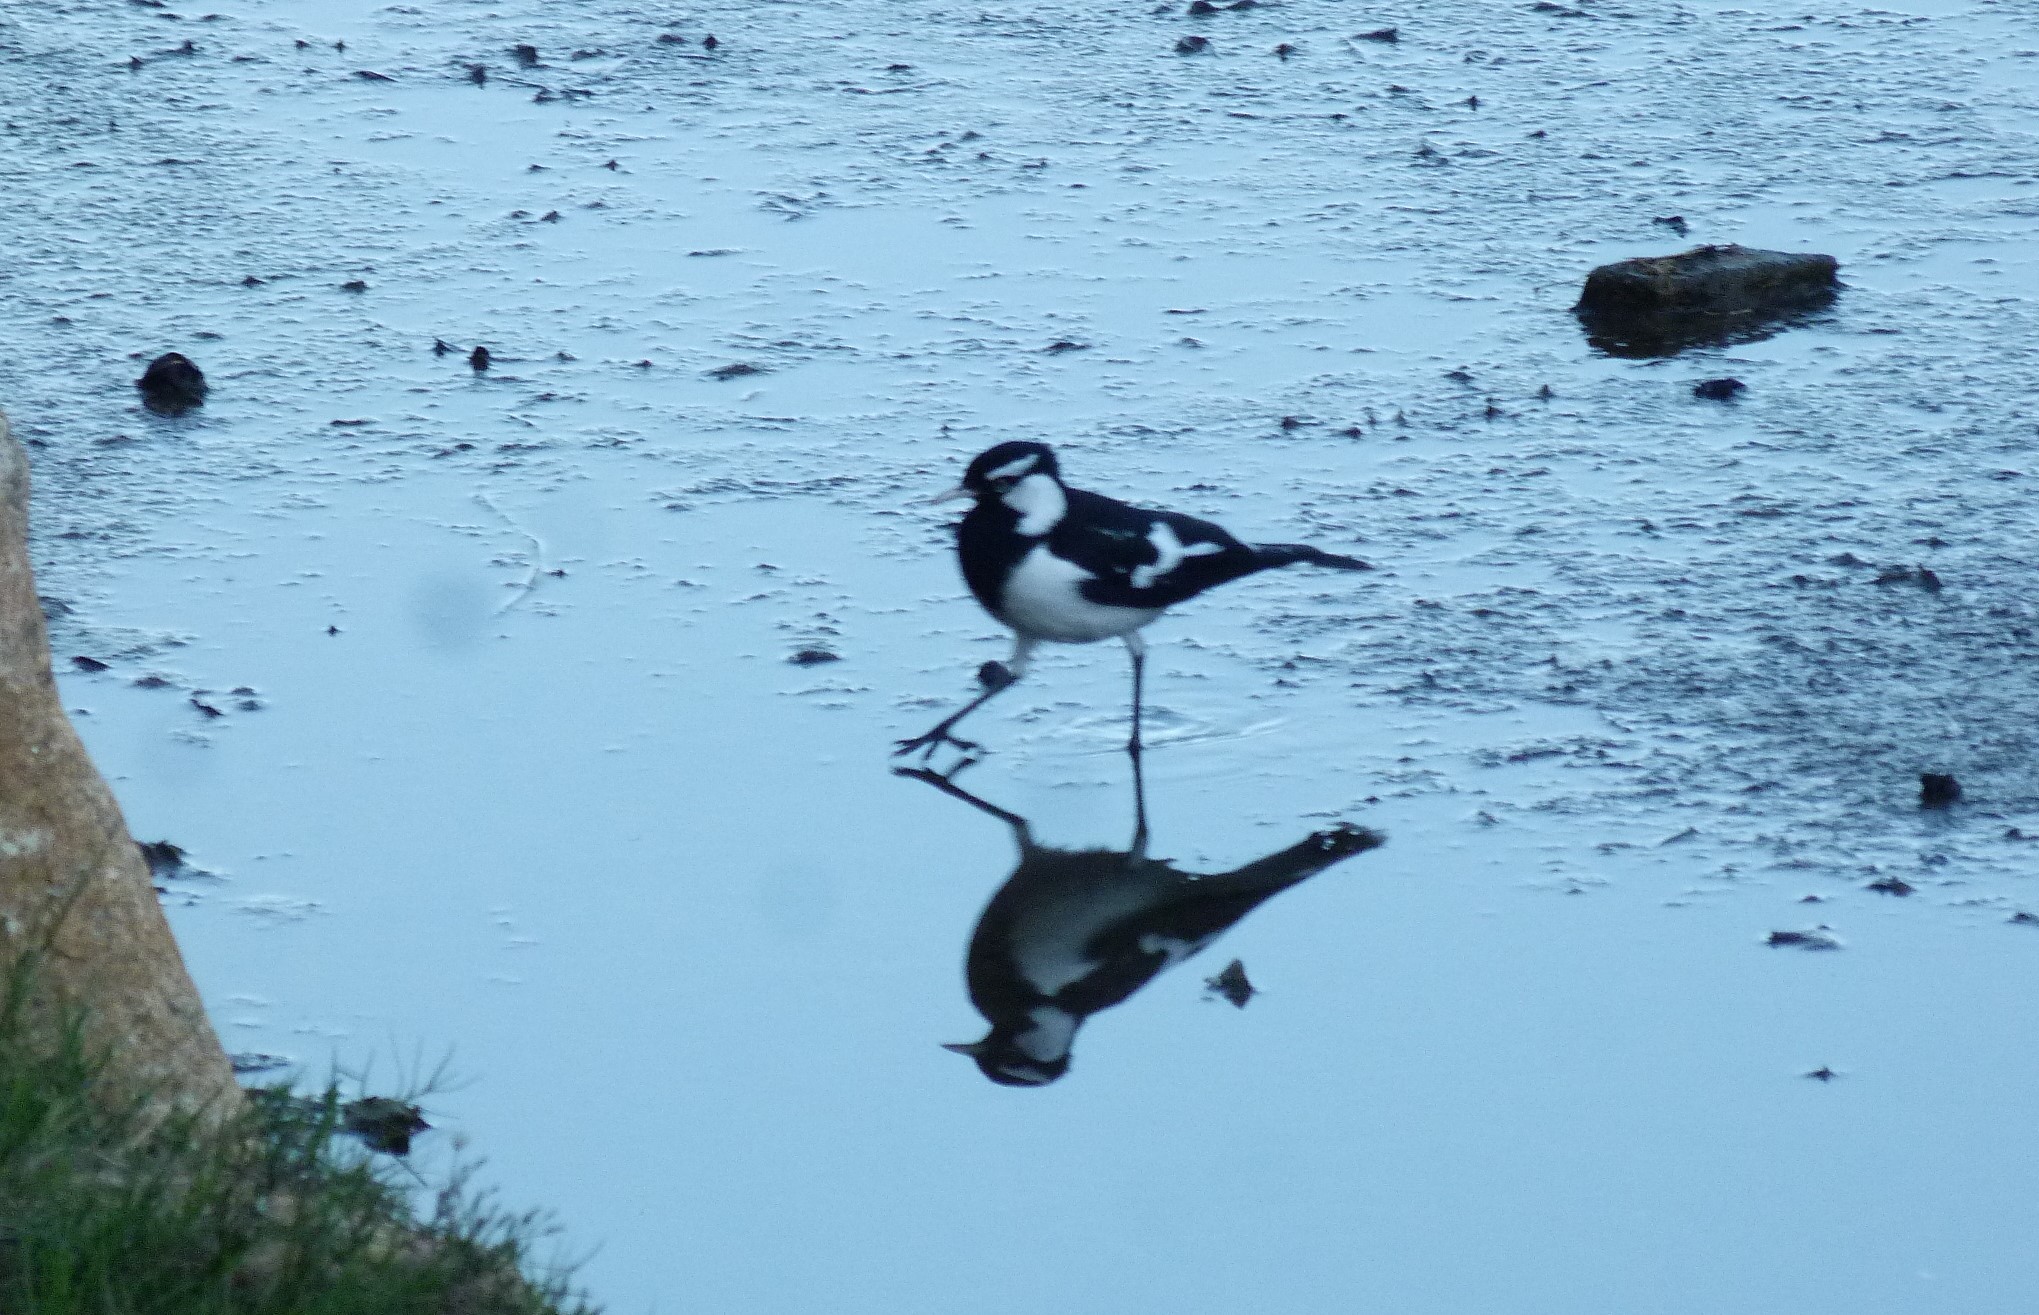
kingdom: Animalia
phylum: Chordata
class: Aves
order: Passeriformes
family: Monarchidae
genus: Grallina
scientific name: Grallina cyanoleuca
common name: Magpie-lark
